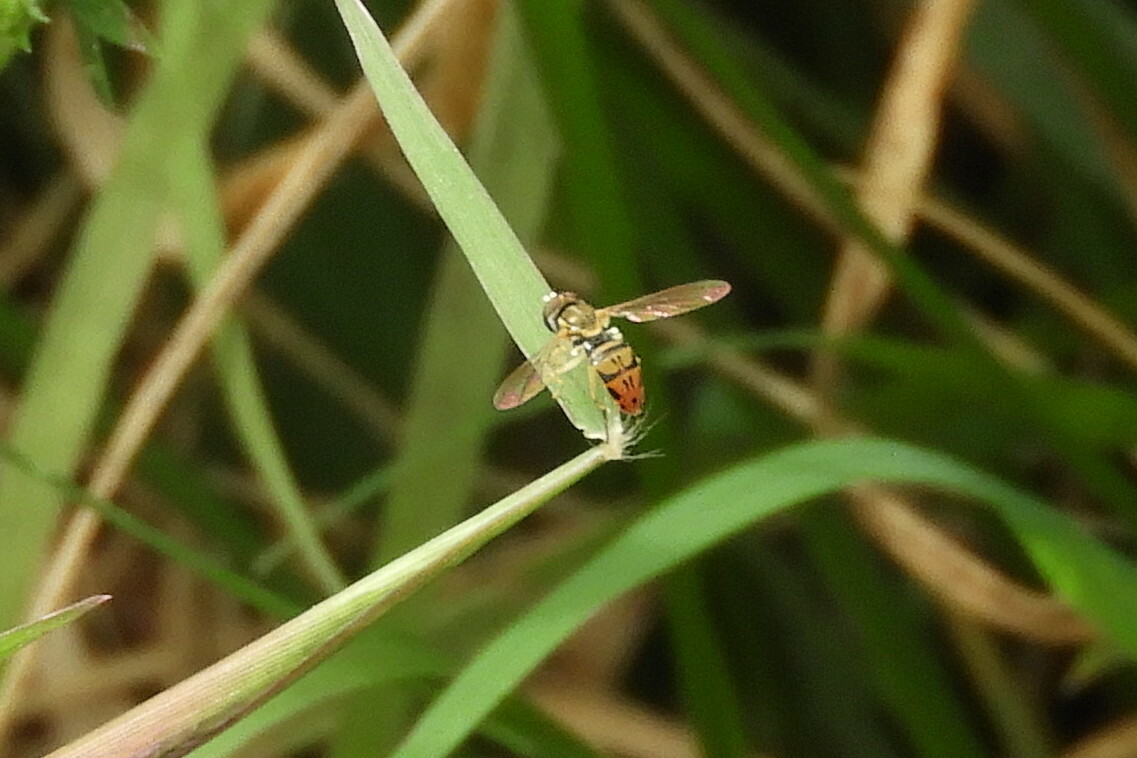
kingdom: Animalia
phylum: Arthropoda
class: Insecta
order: Diptera
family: Syrphidae
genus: Toxomerus
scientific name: Toxomerus marginatus
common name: Syrphid fly
